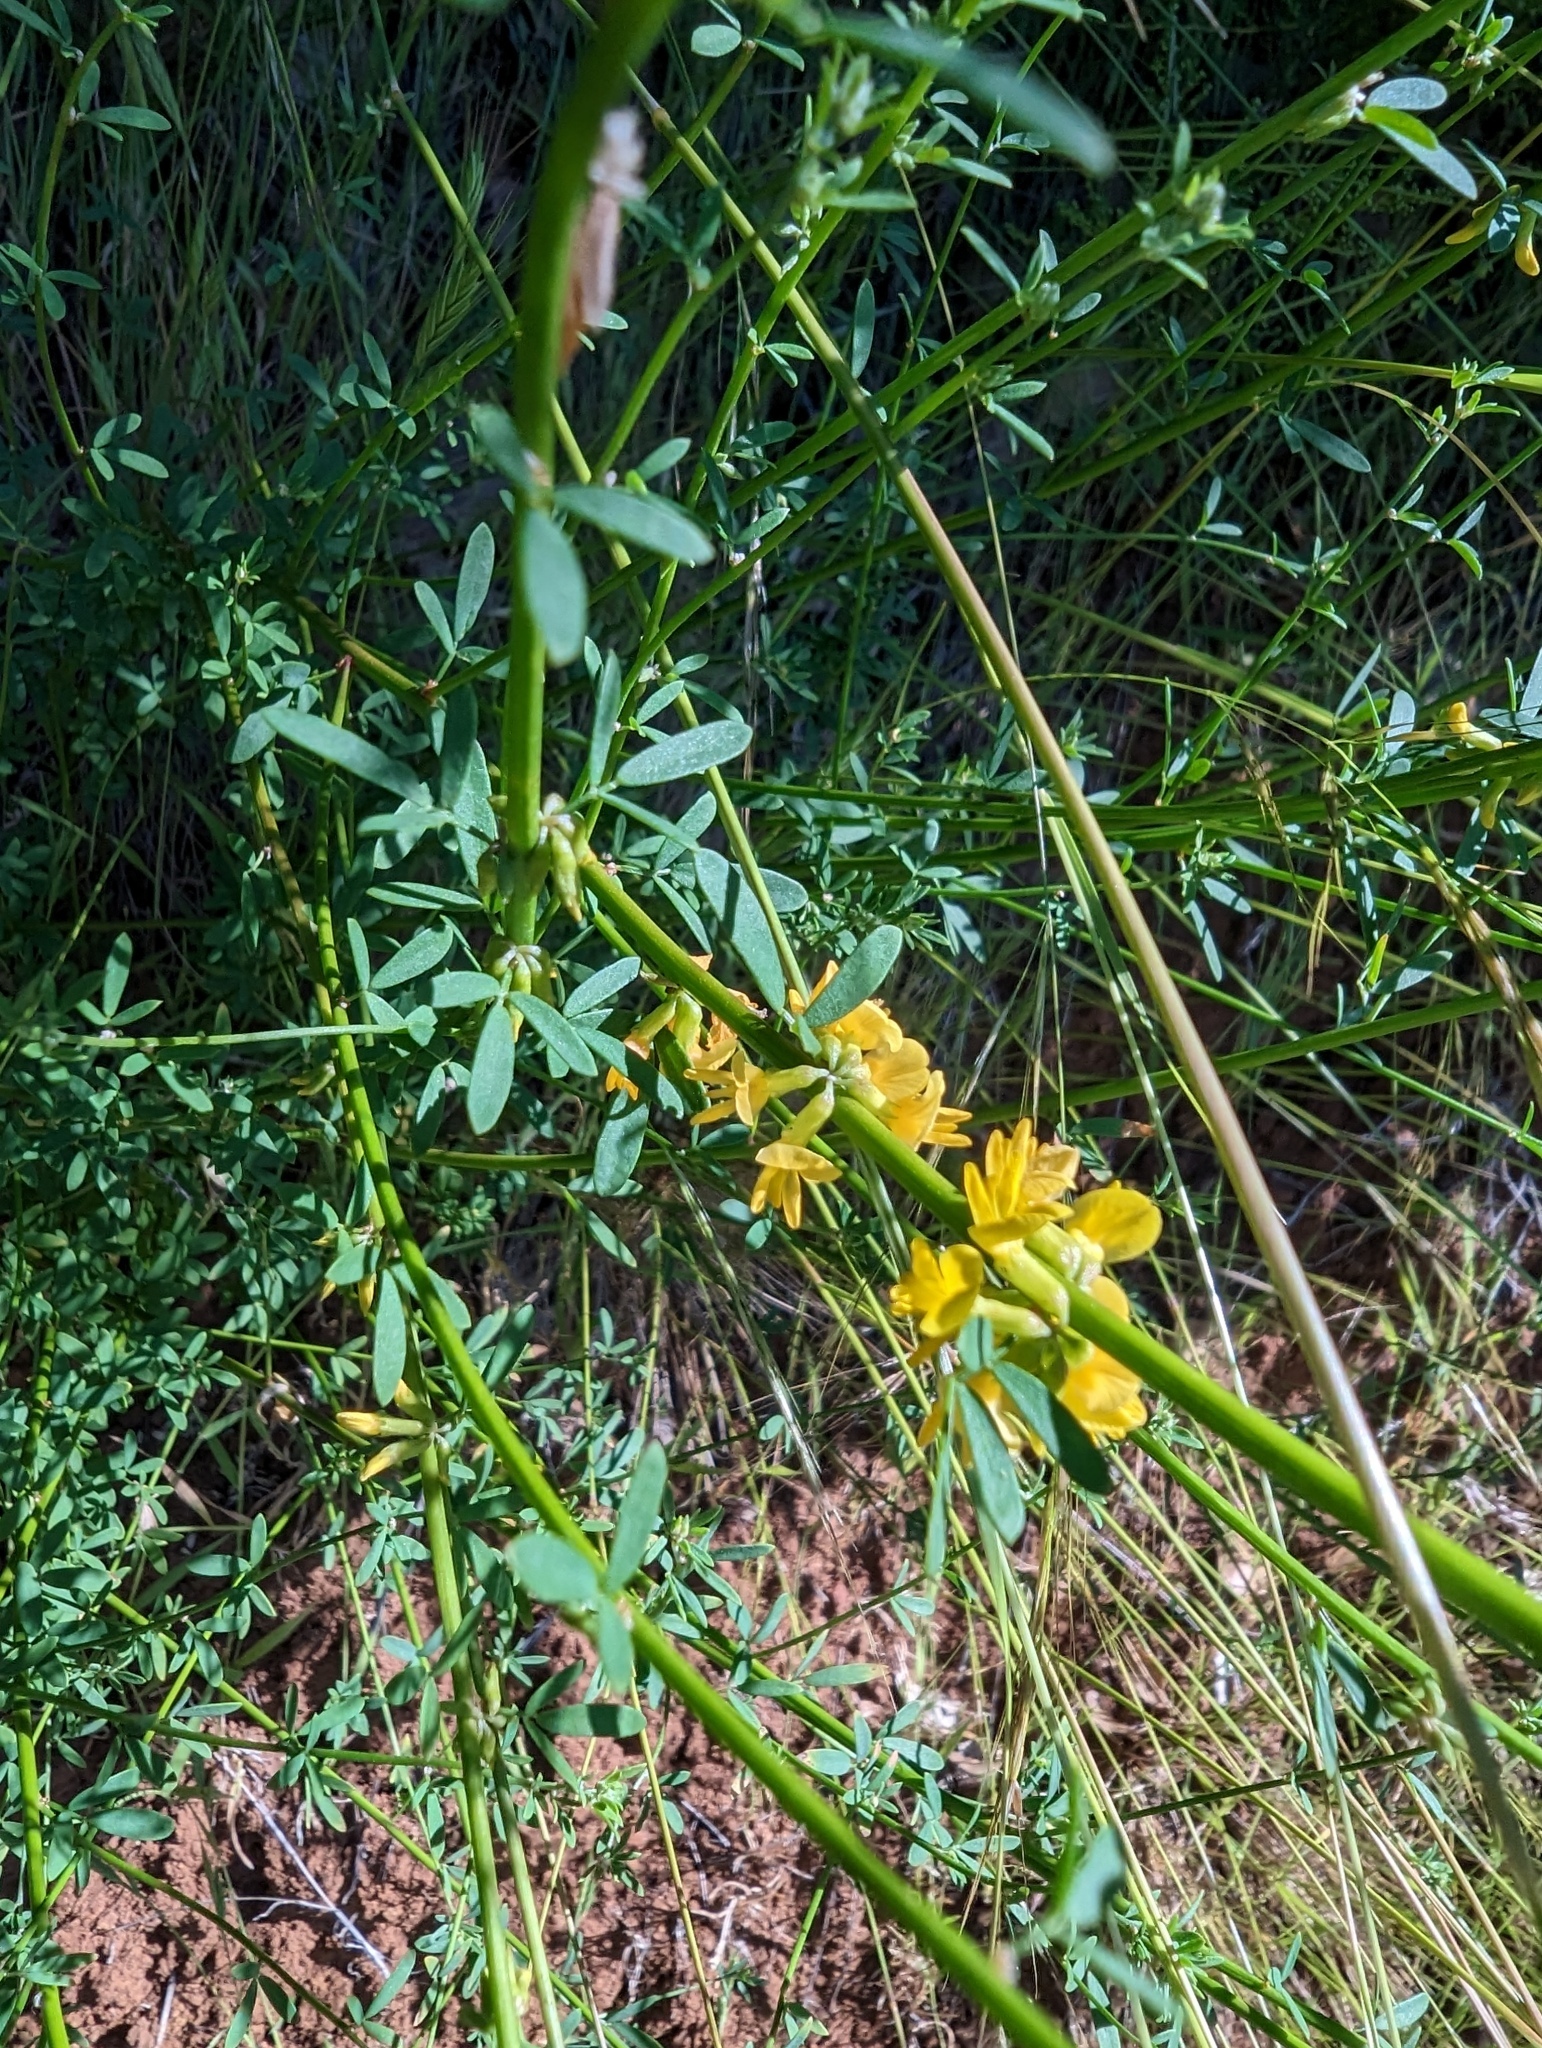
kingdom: Plantae
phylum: Tracheophyta
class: Magnoliopsida
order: Fabales
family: Fabaceae
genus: Acmispon
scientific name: Acmispon glaber
